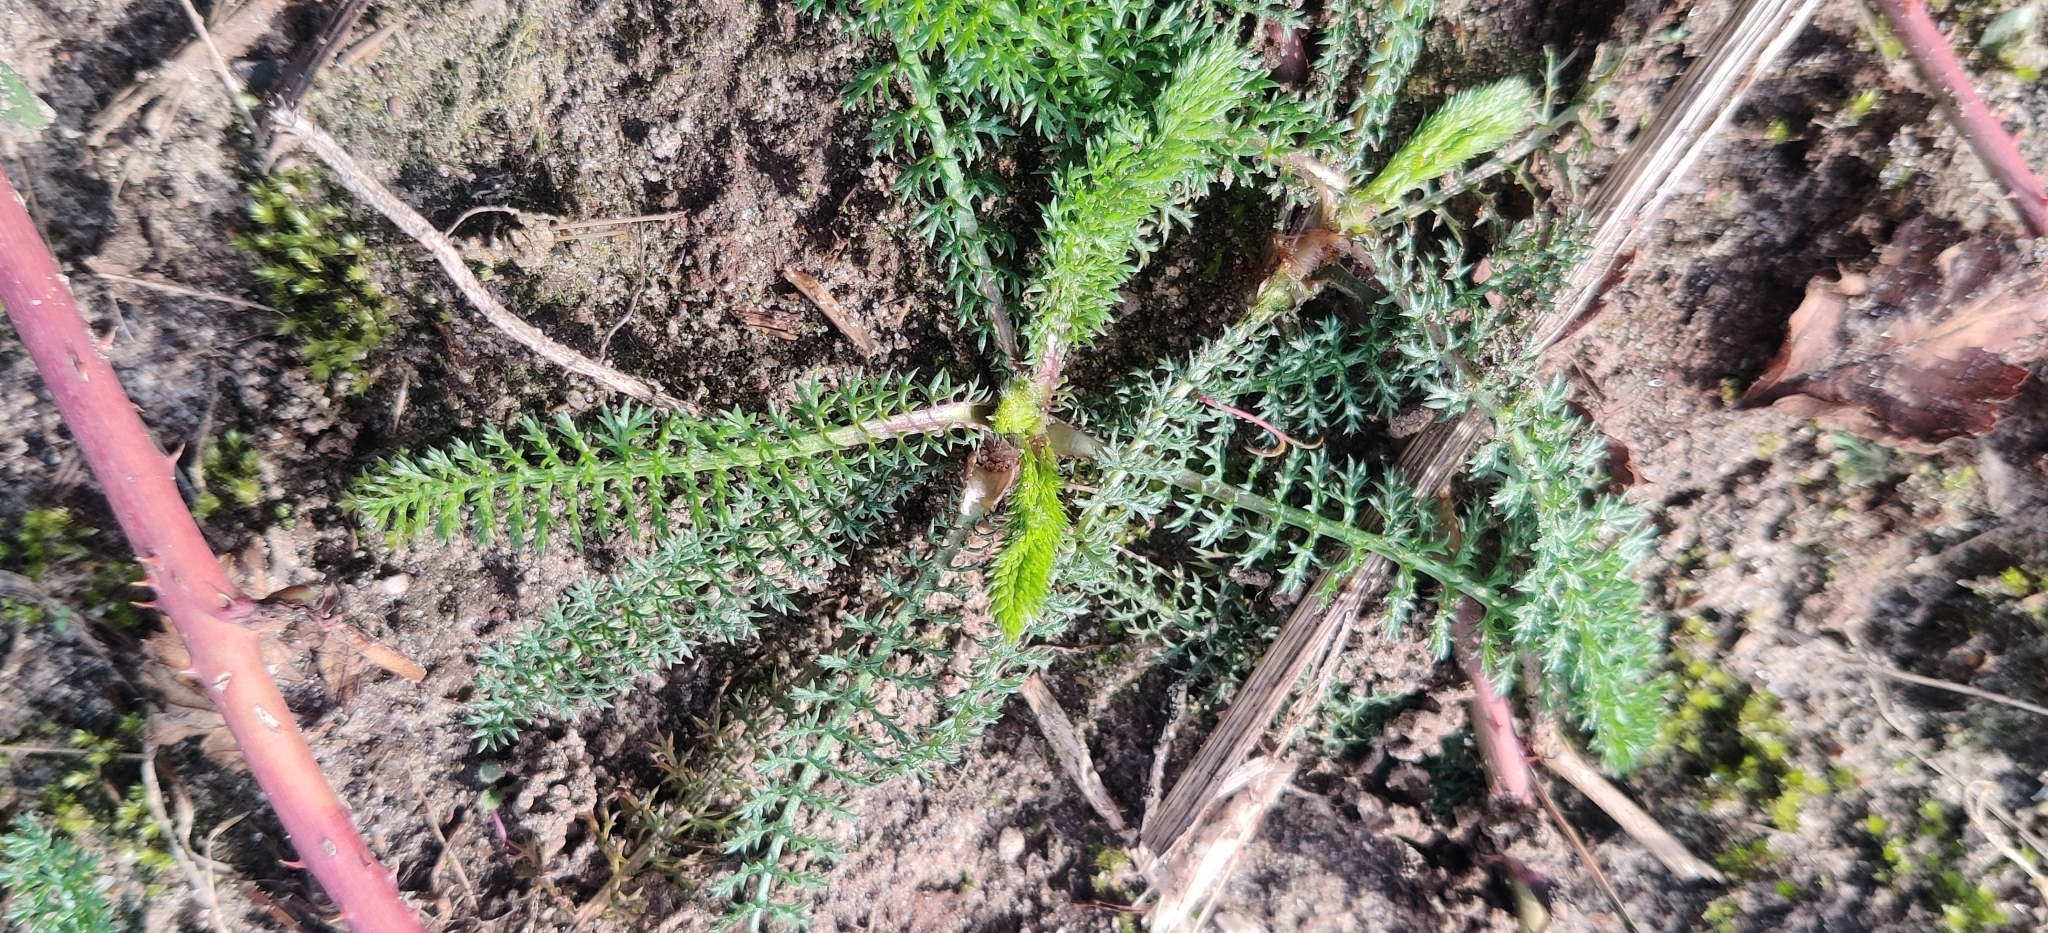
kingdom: Plantae
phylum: Tracheophyta
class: Magnoliopsida
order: Asterales
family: Asteraceae
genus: Achillea
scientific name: Achillea millefolium
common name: Yarrow
